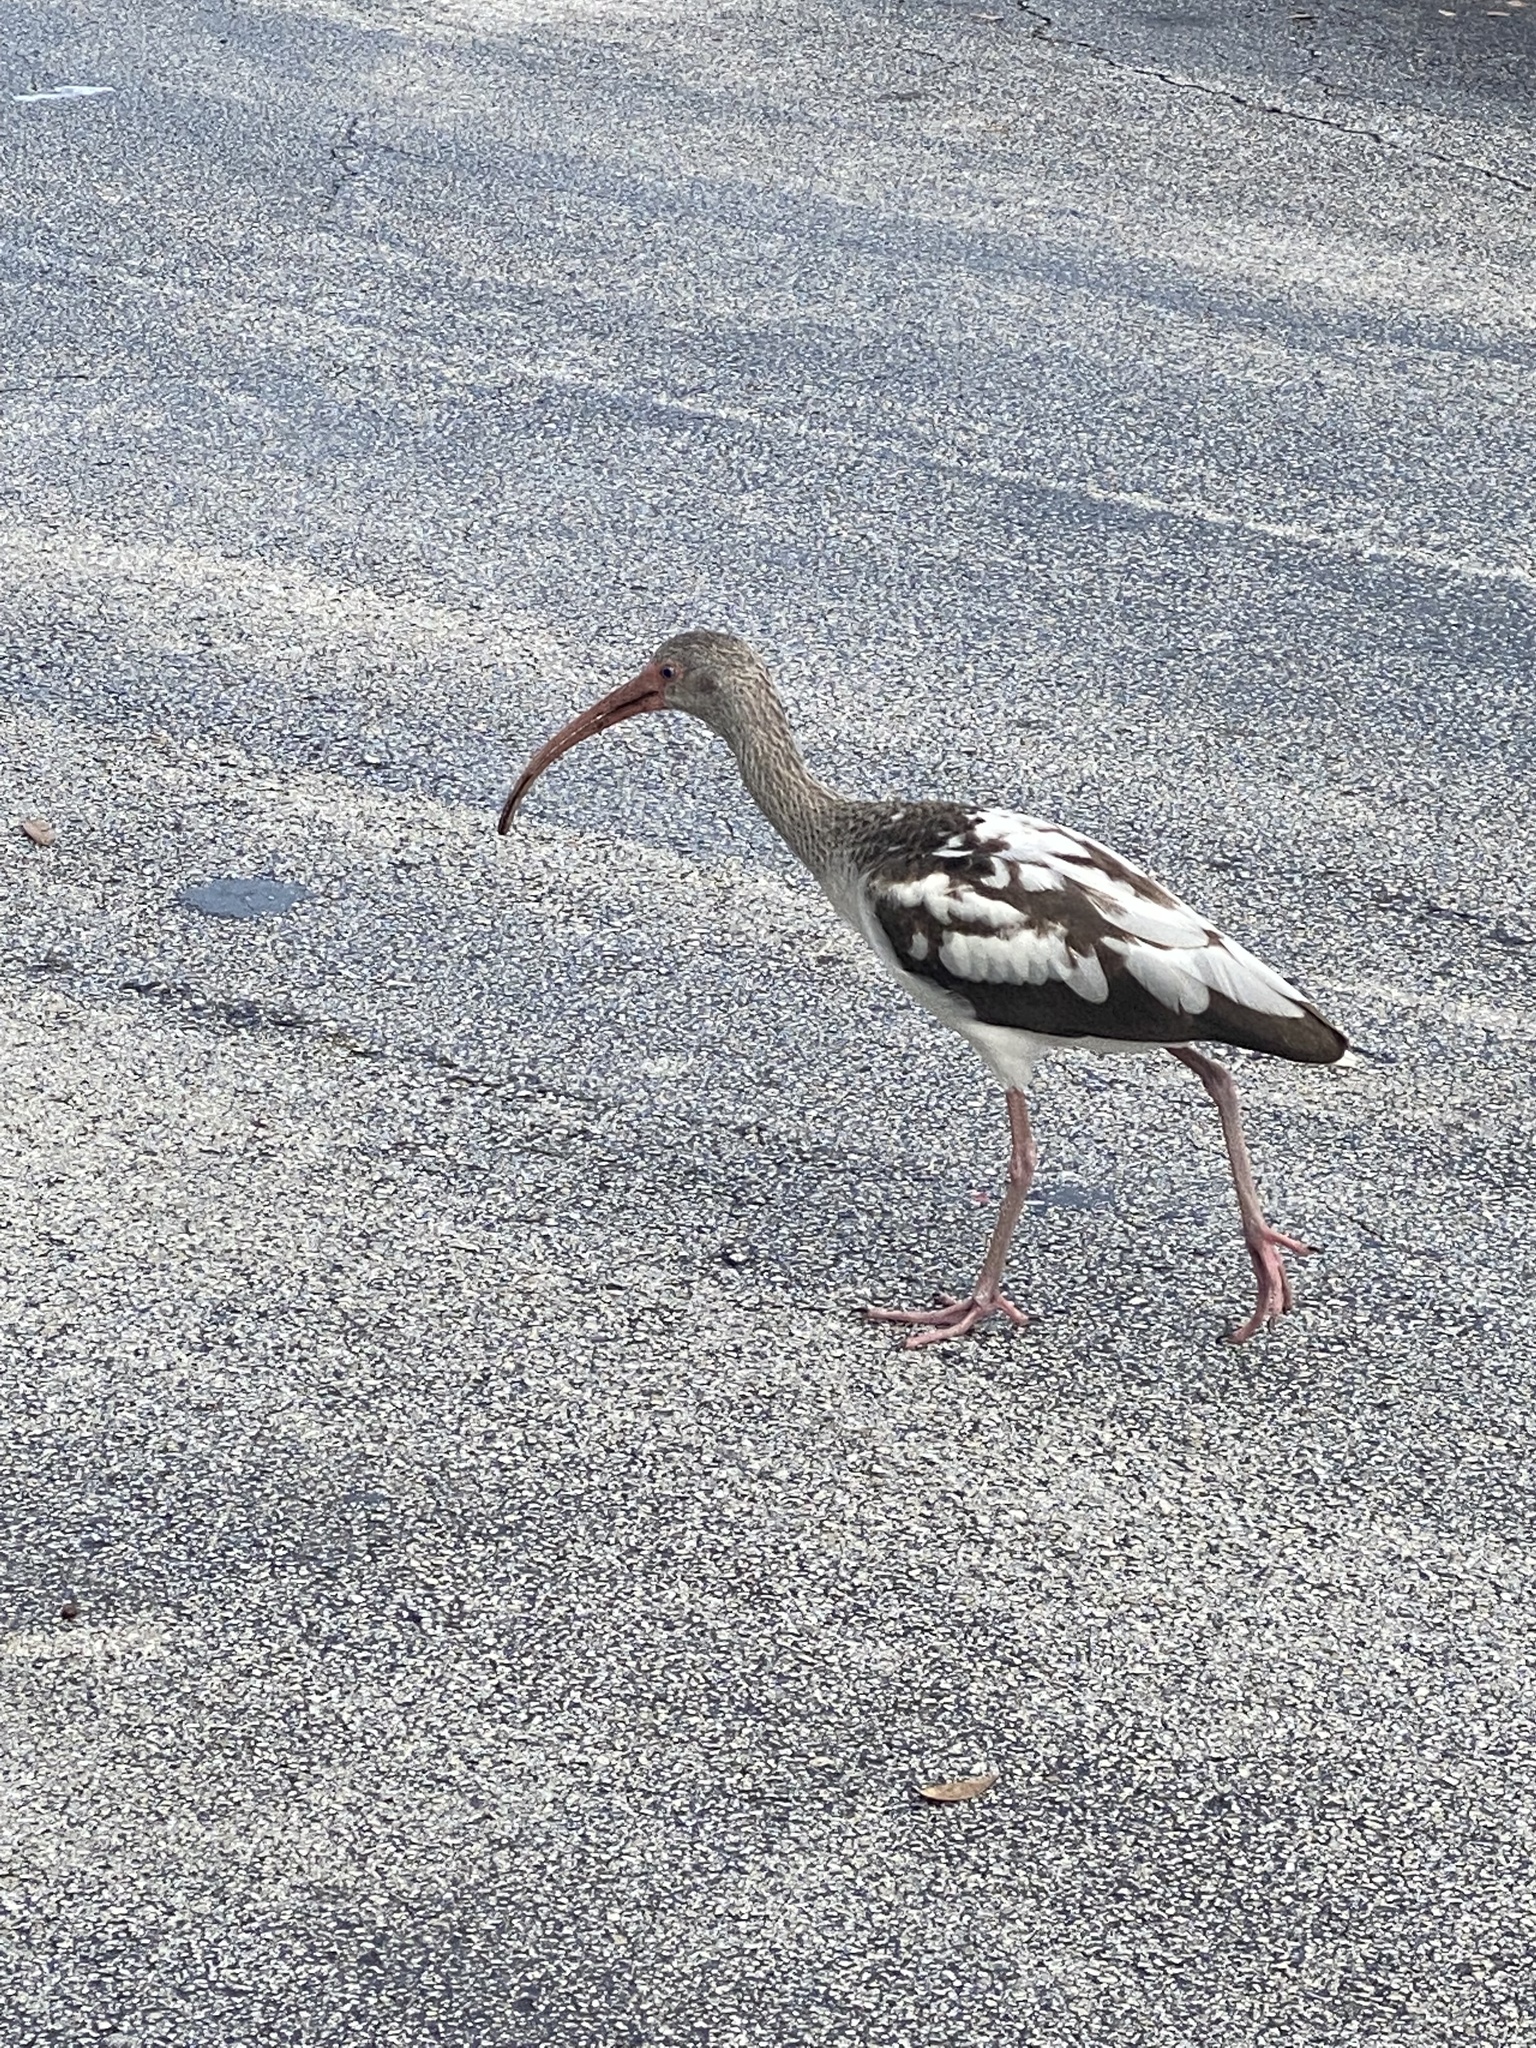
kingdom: Animalia
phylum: Chordata
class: Aves
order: Pelecaniformes
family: Threskiornithidae
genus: Eudocimus
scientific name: Eudocimus albus
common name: White ibis
